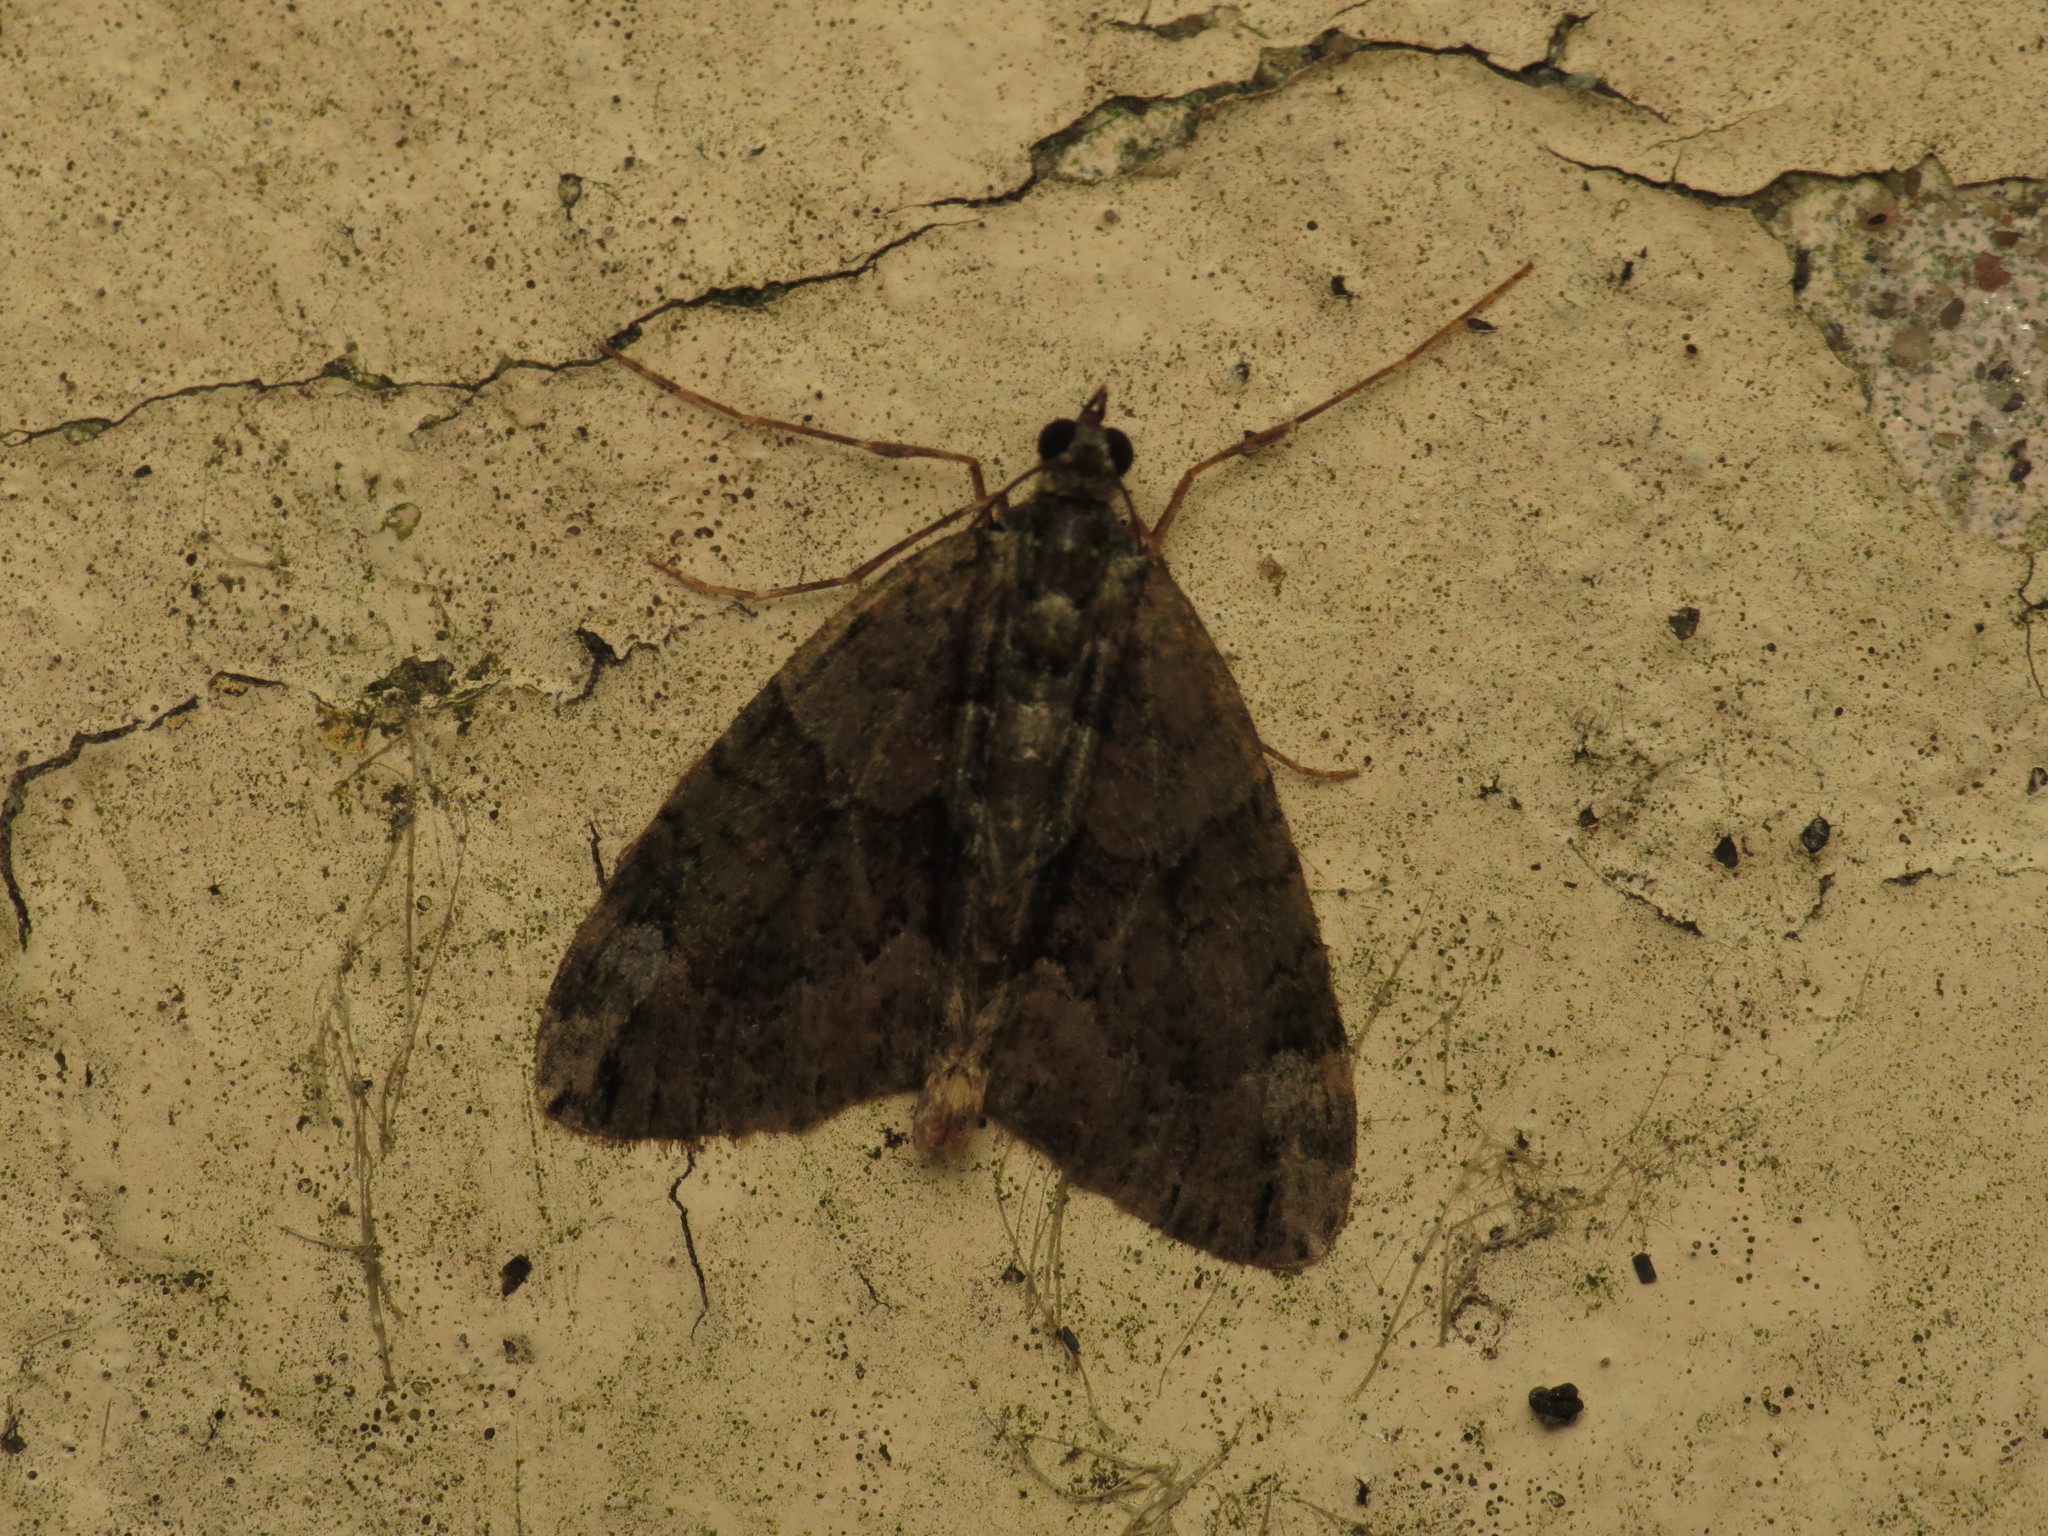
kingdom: Animalia
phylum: Arthropoda
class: Insecta
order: Lepidoptera
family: Geometridae
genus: Chloroclysta
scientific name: Chloroclysta siterata
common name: Red-green carpet
